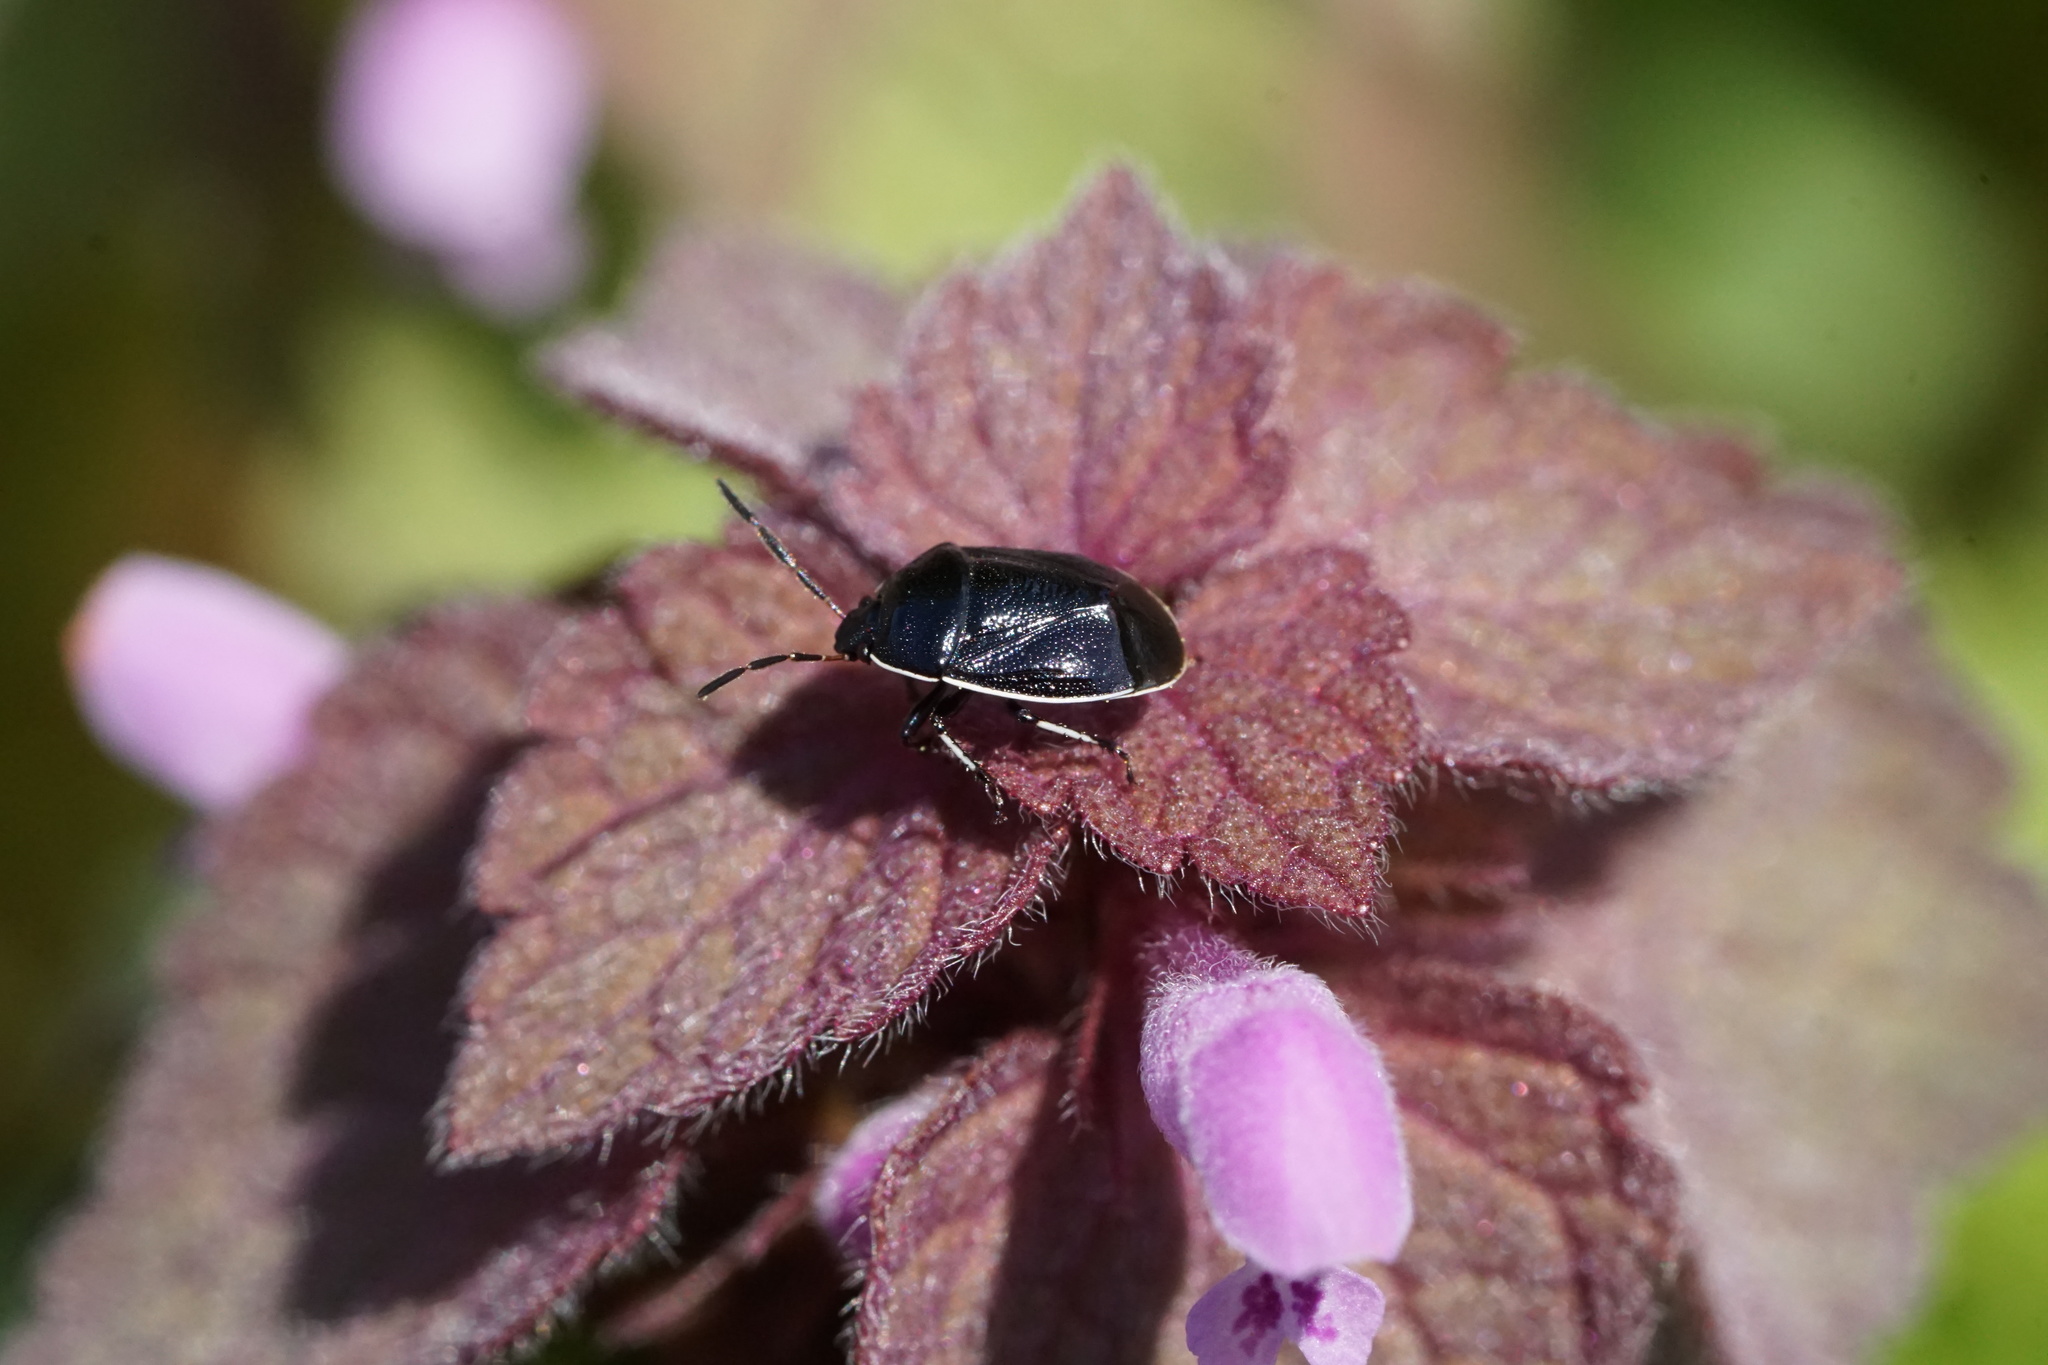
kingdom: Animalia
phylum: Arthropoda
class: Insecta
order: Hemiptera
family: Cydnidae
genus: Sehirus
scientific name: Sehirus cinctus
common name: White-margined burrower bug
